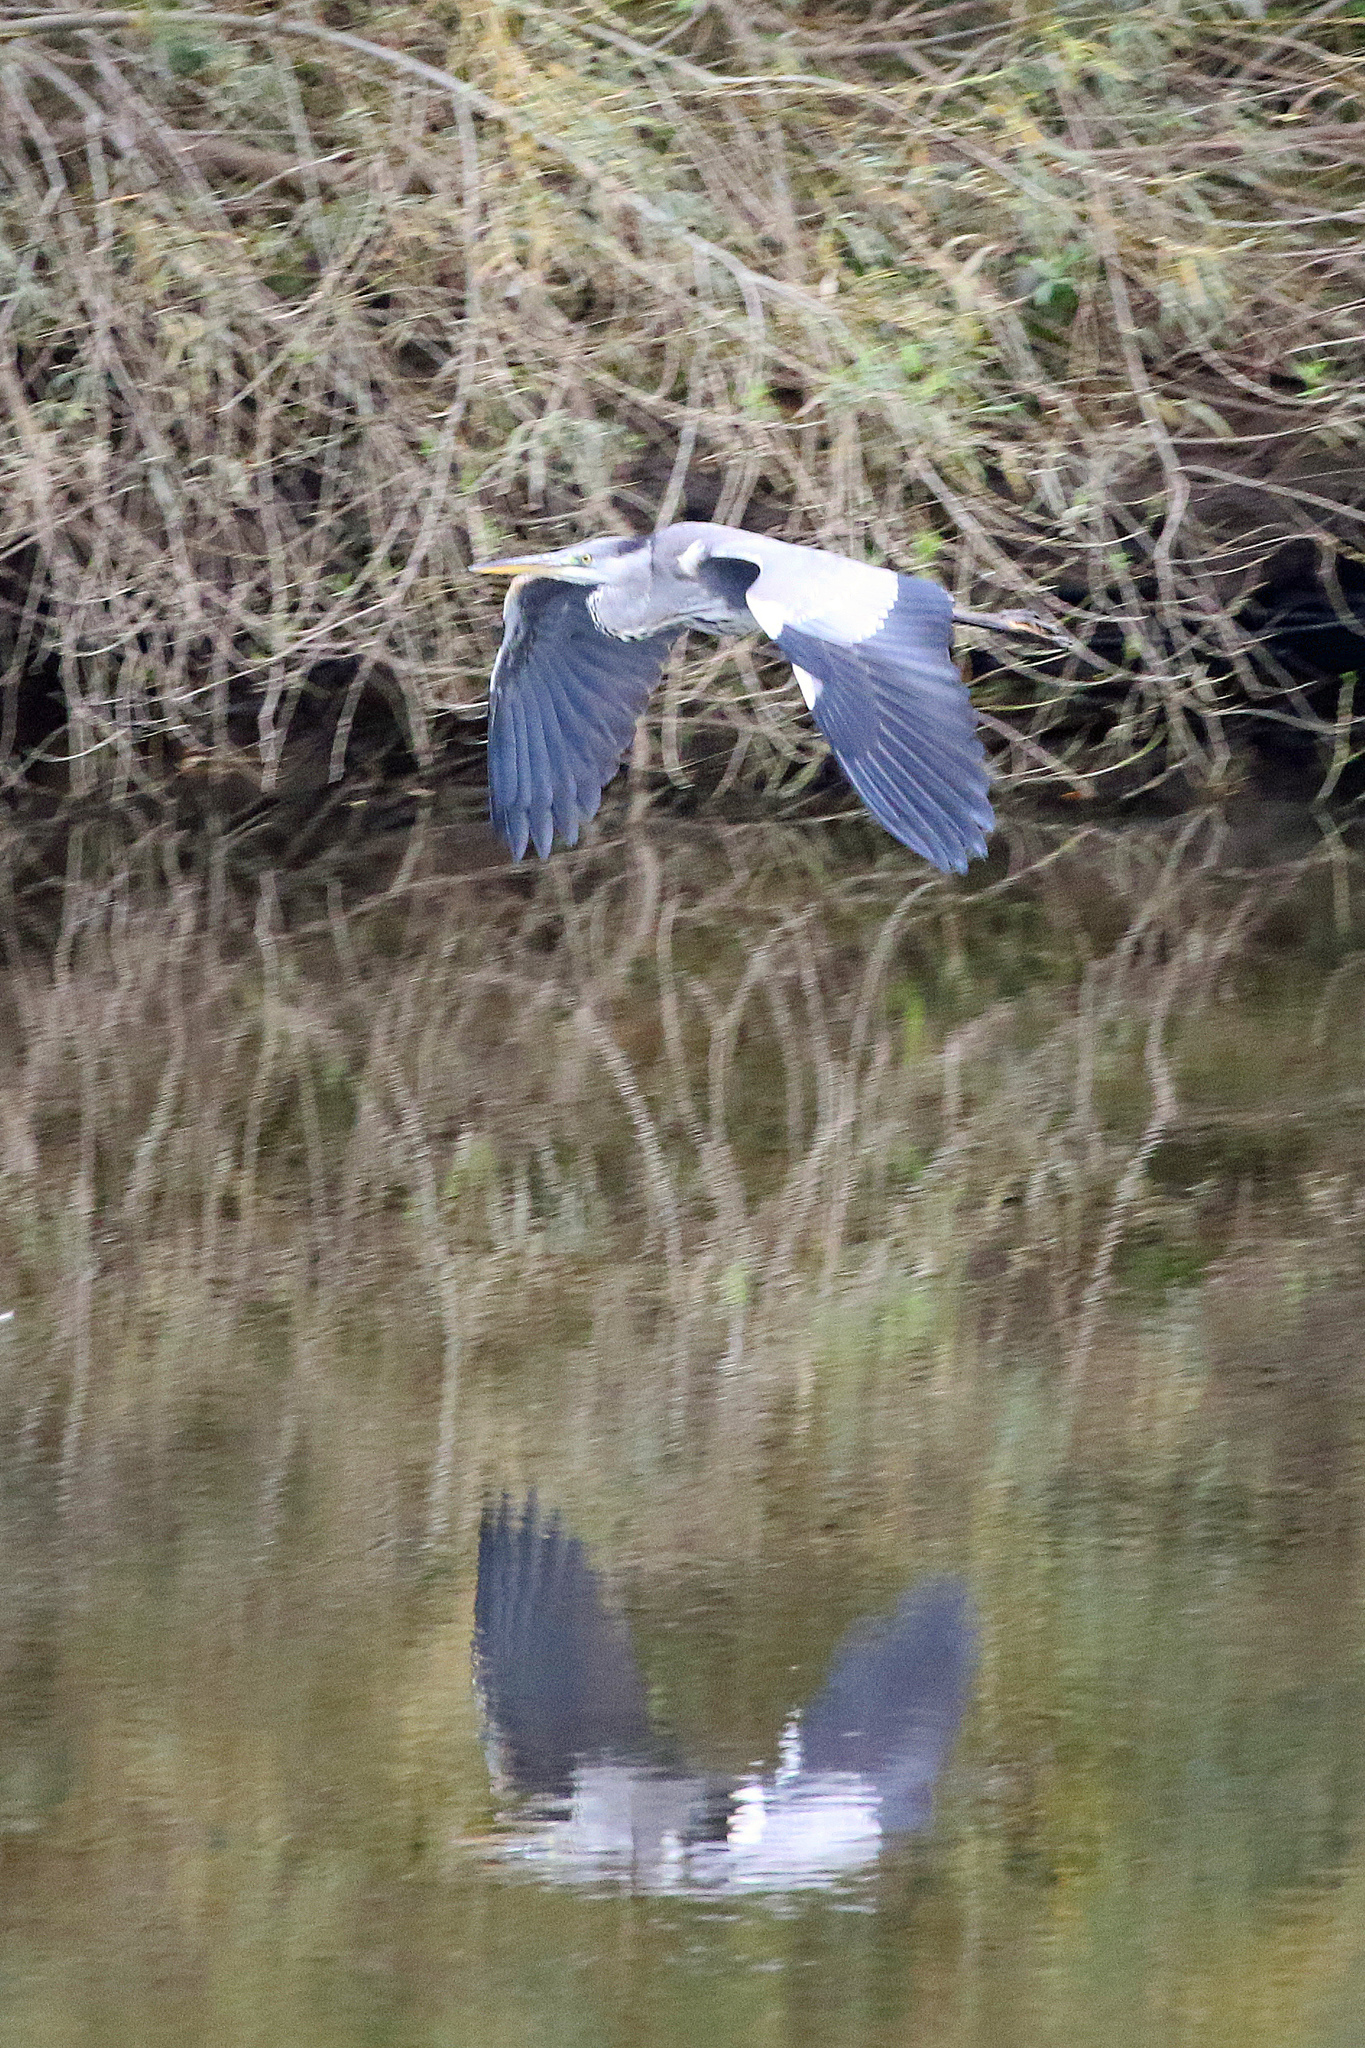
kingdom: Animalia
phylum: Chordata
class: Aves
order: Pelecaniformes
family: Ardeidae
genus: Ardea
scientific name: Ardea cinerea
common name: Grey heron
